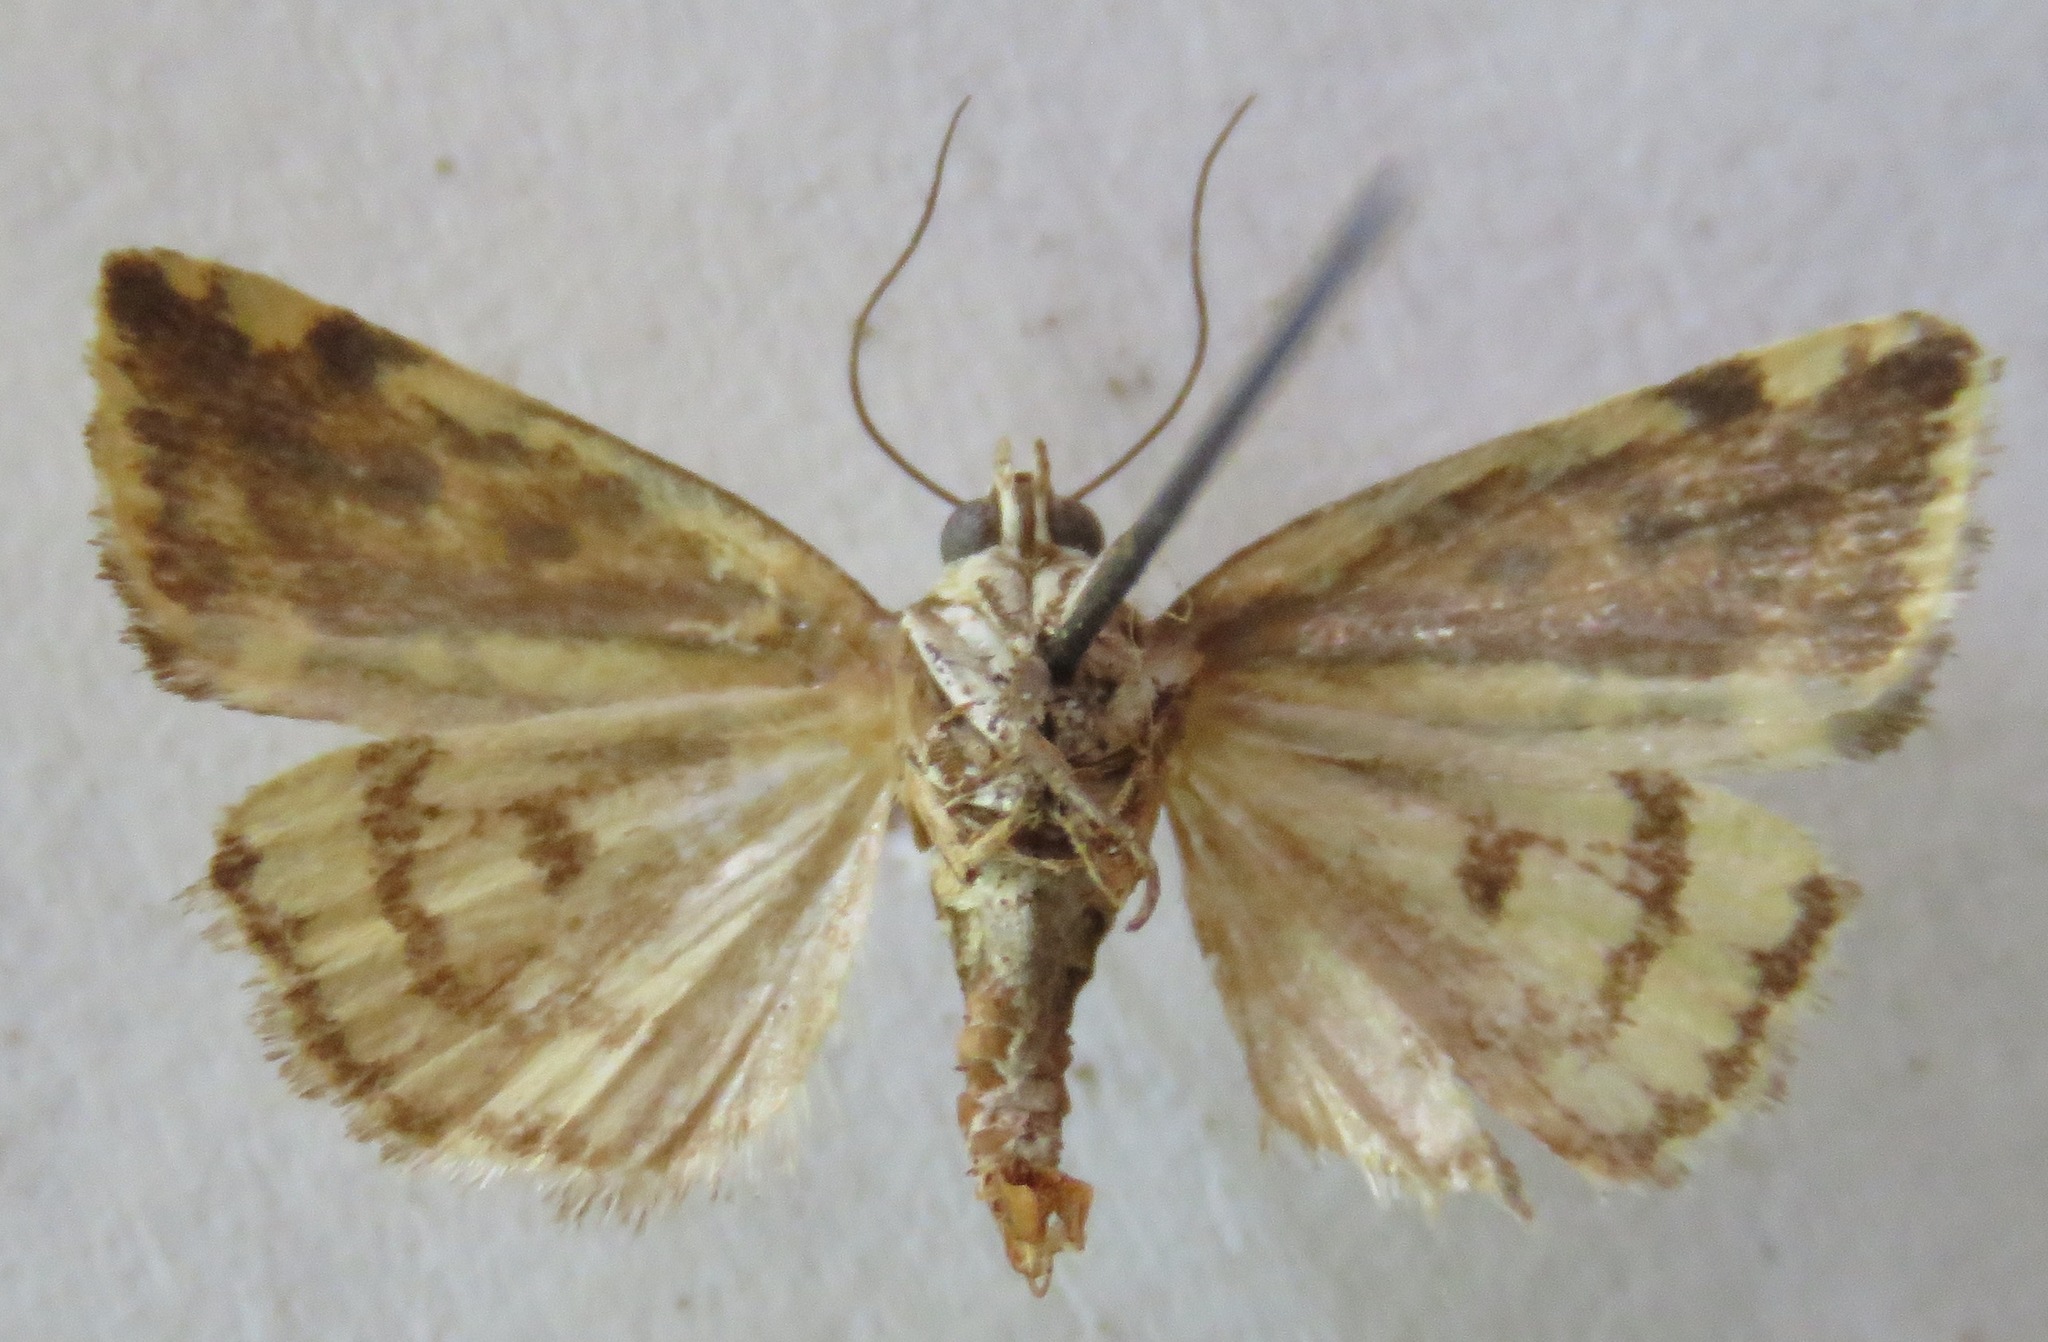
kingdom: Animalia
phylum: Arthropoda
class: Insecta
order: Lepidoptera
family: Noctuidae
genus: Acontia
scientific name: Acontia trabealis
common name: Spotted sulphur
